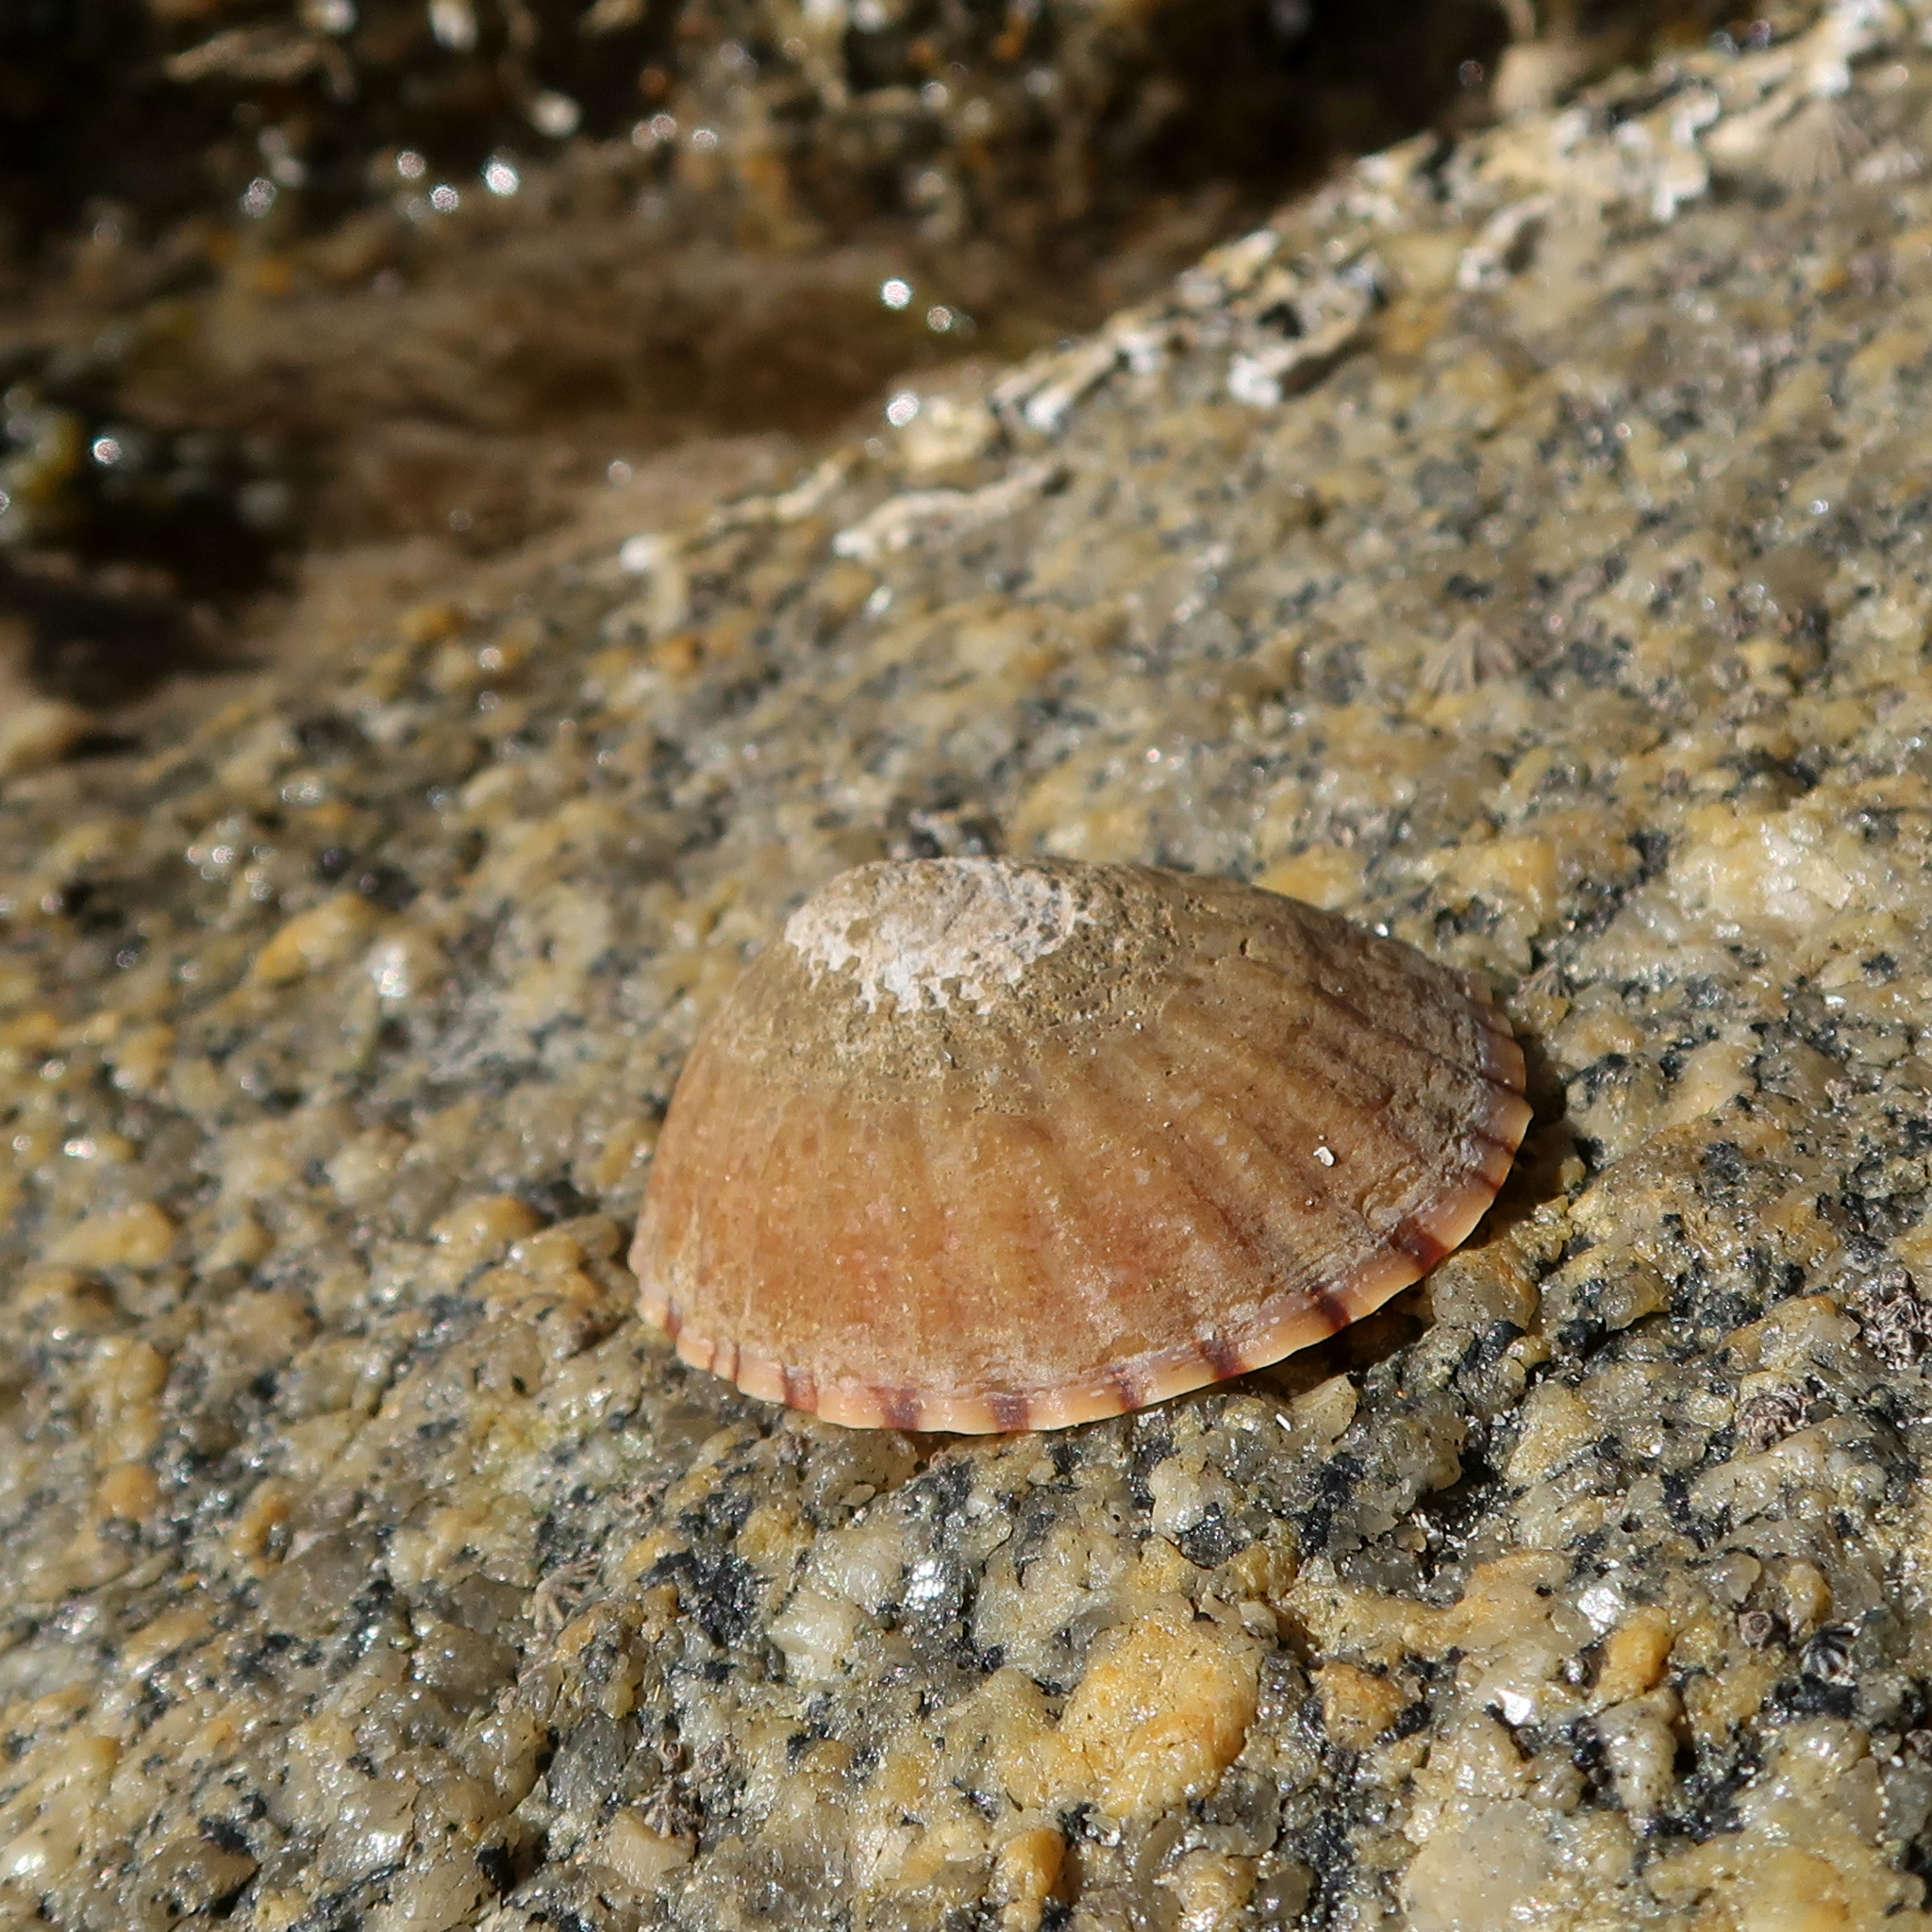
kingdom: Animalia
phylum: Mollusca
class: Gastropoda
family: Nacellidae
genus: Cellana
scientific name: Cellana solida
